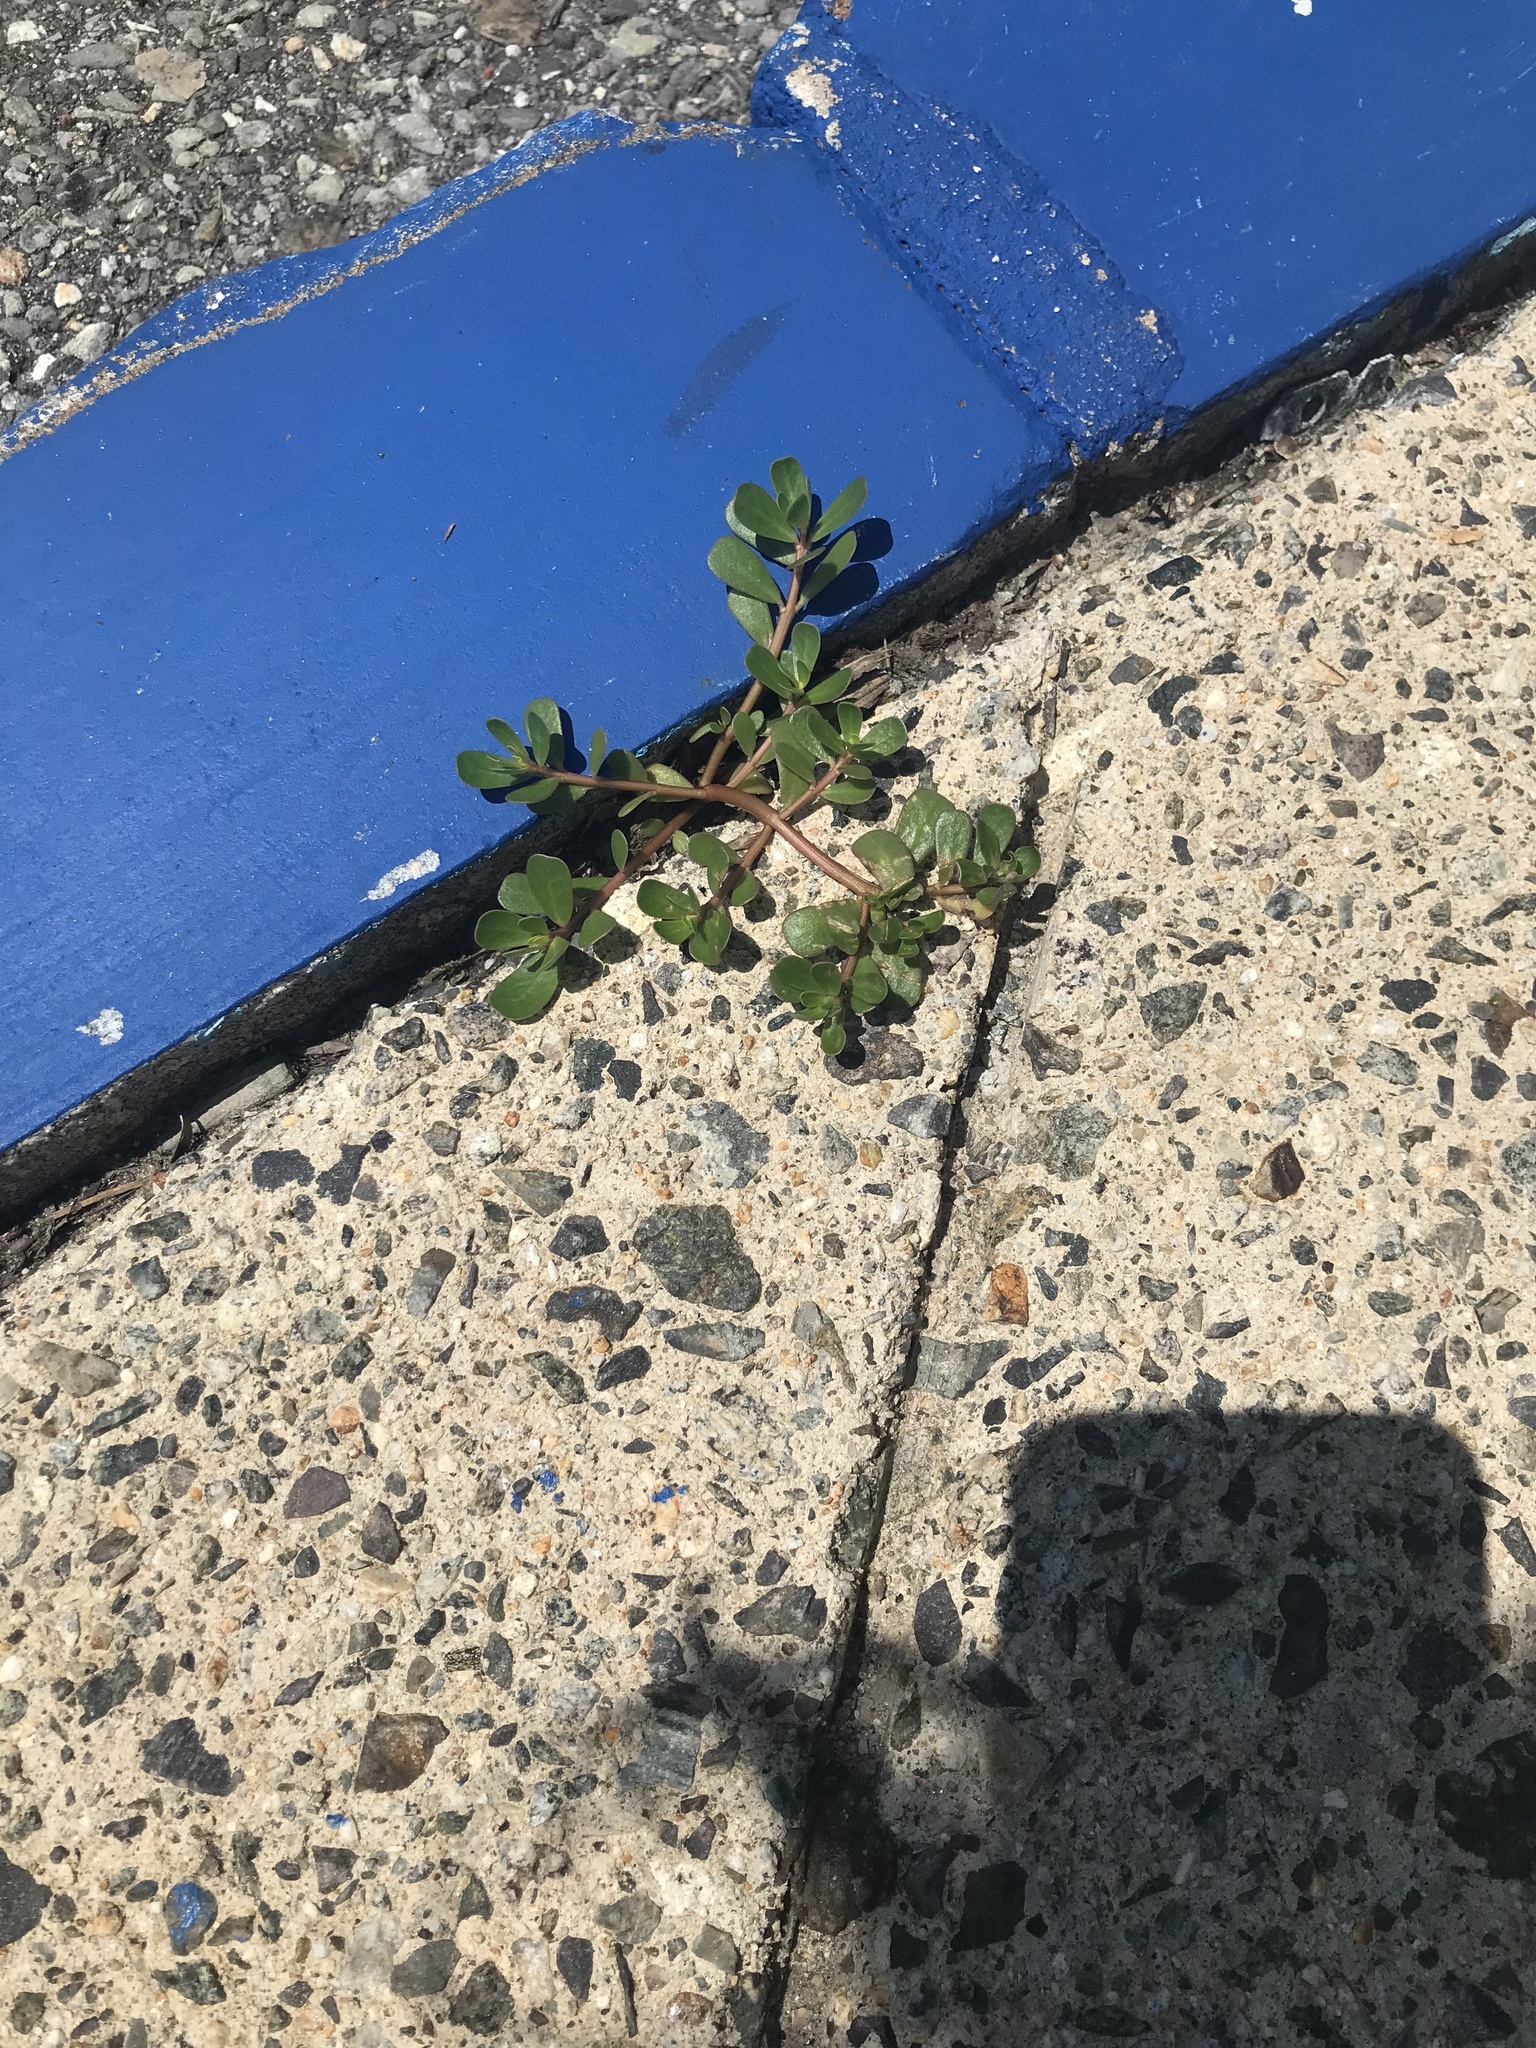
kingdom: Plantae
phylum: Tracheophyta
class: Magnoliopsida
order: Caryophyllales
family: Portulacaceae
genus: Portulaca
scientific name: Portulaca oleracea
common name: Common purslane
